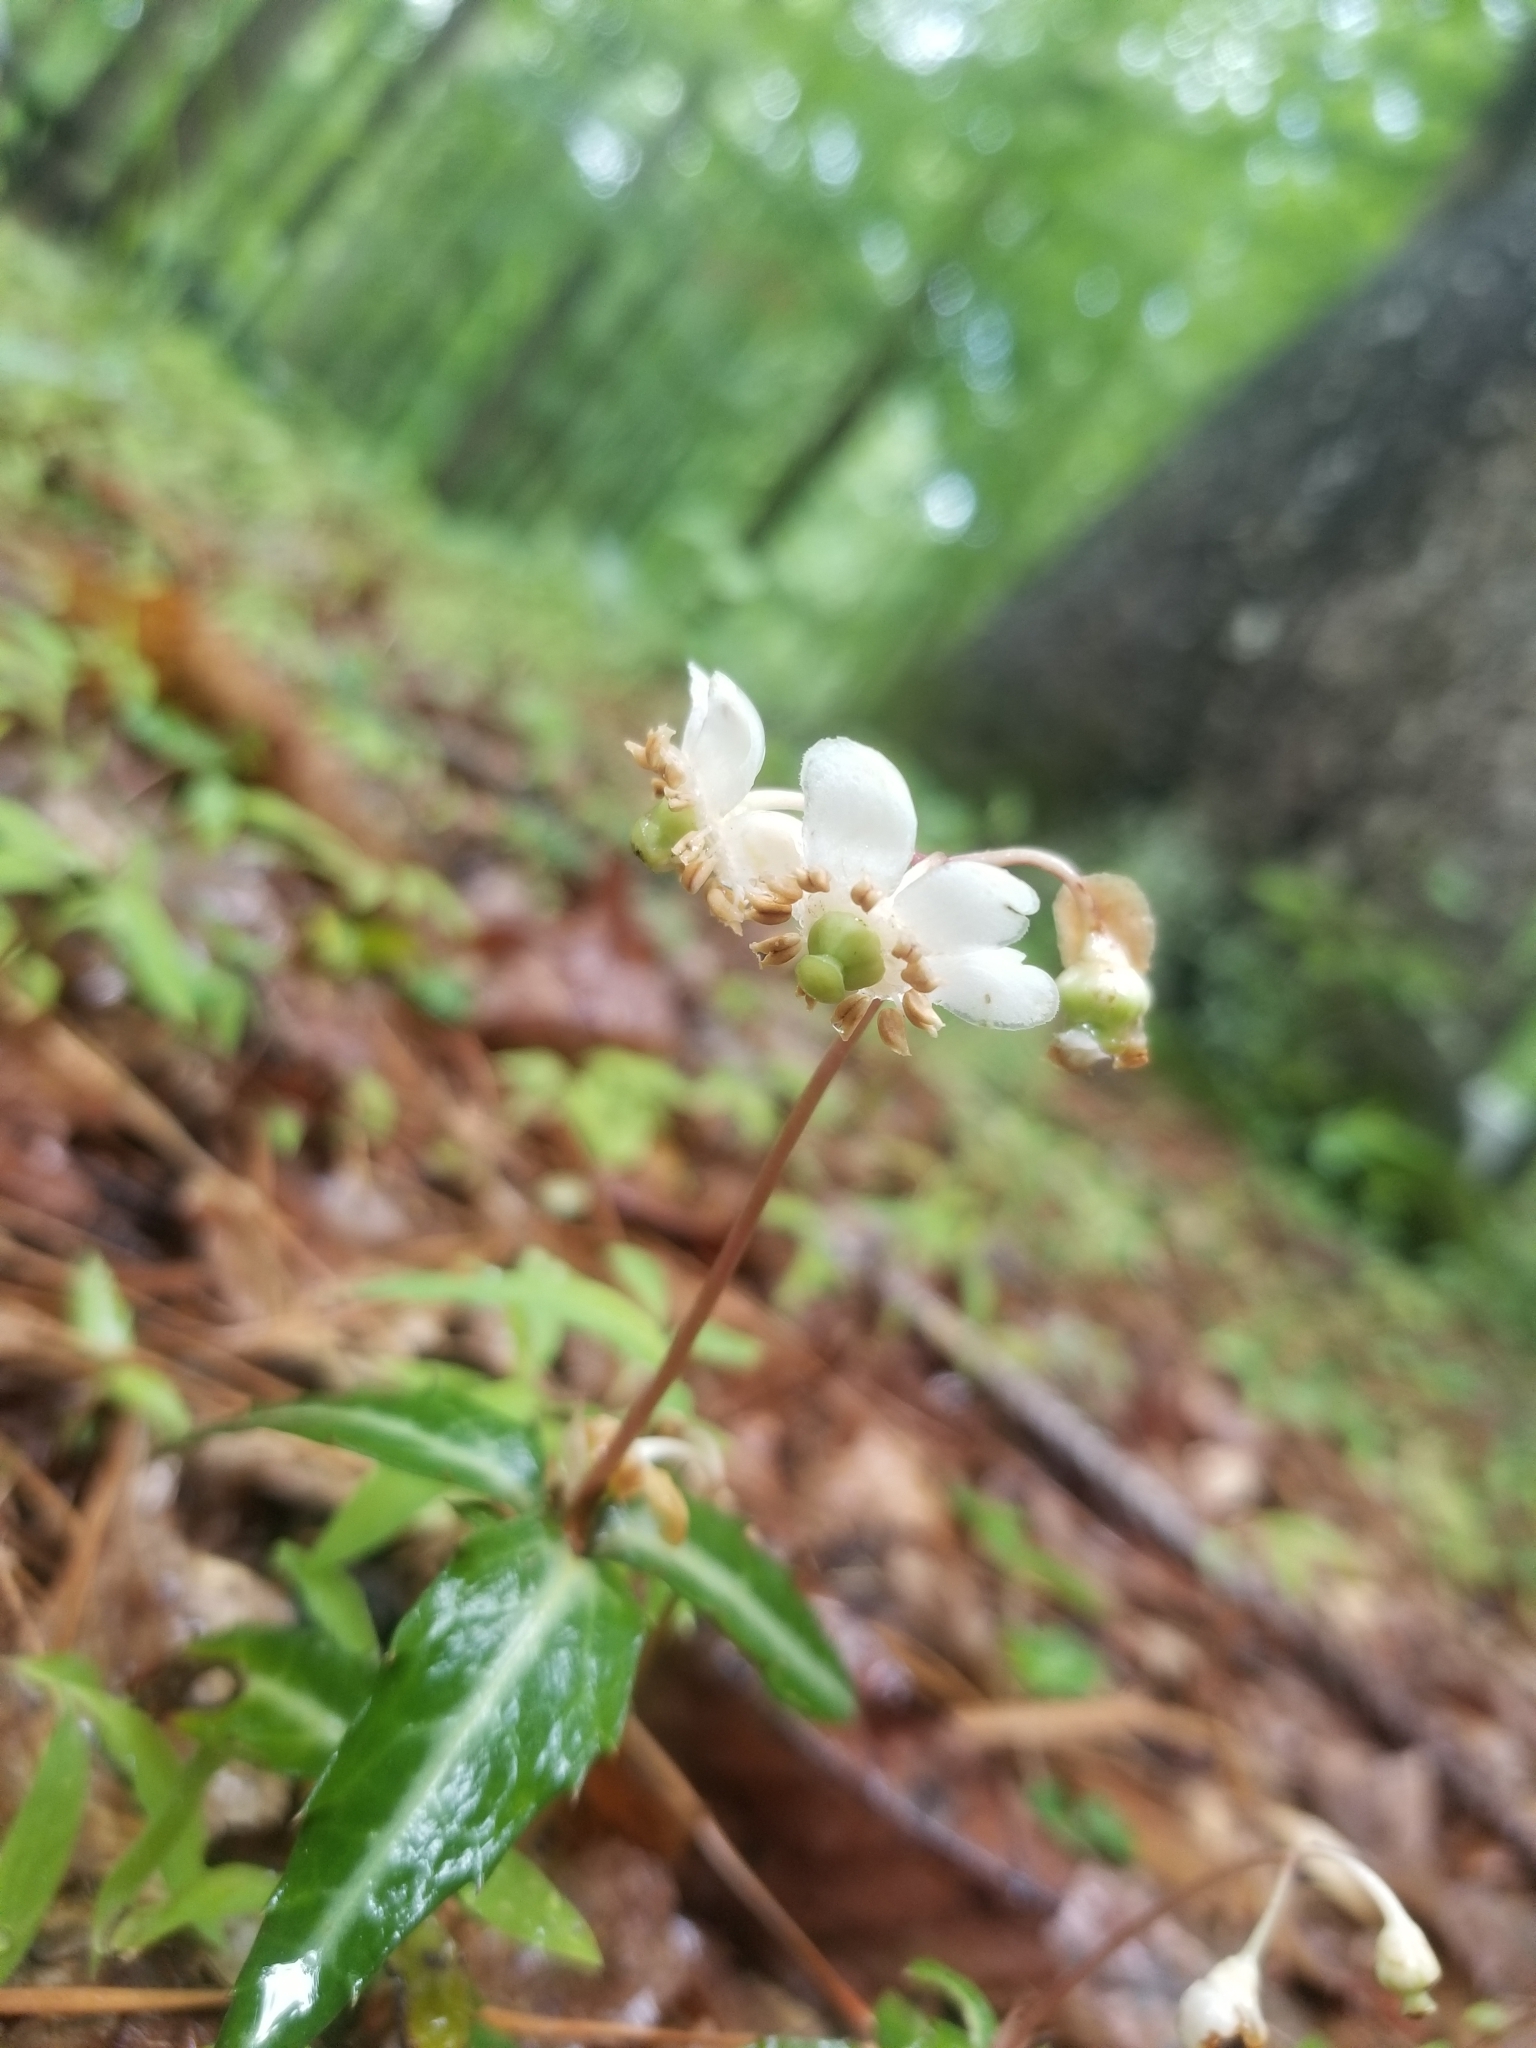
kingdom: Plantae
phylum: Tracheophyta
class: Magnoliopsida
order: Ericales
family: Ericaceae
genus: Chimaphila
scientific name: Chimaphila maculata
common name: Spotted pipsissewa
